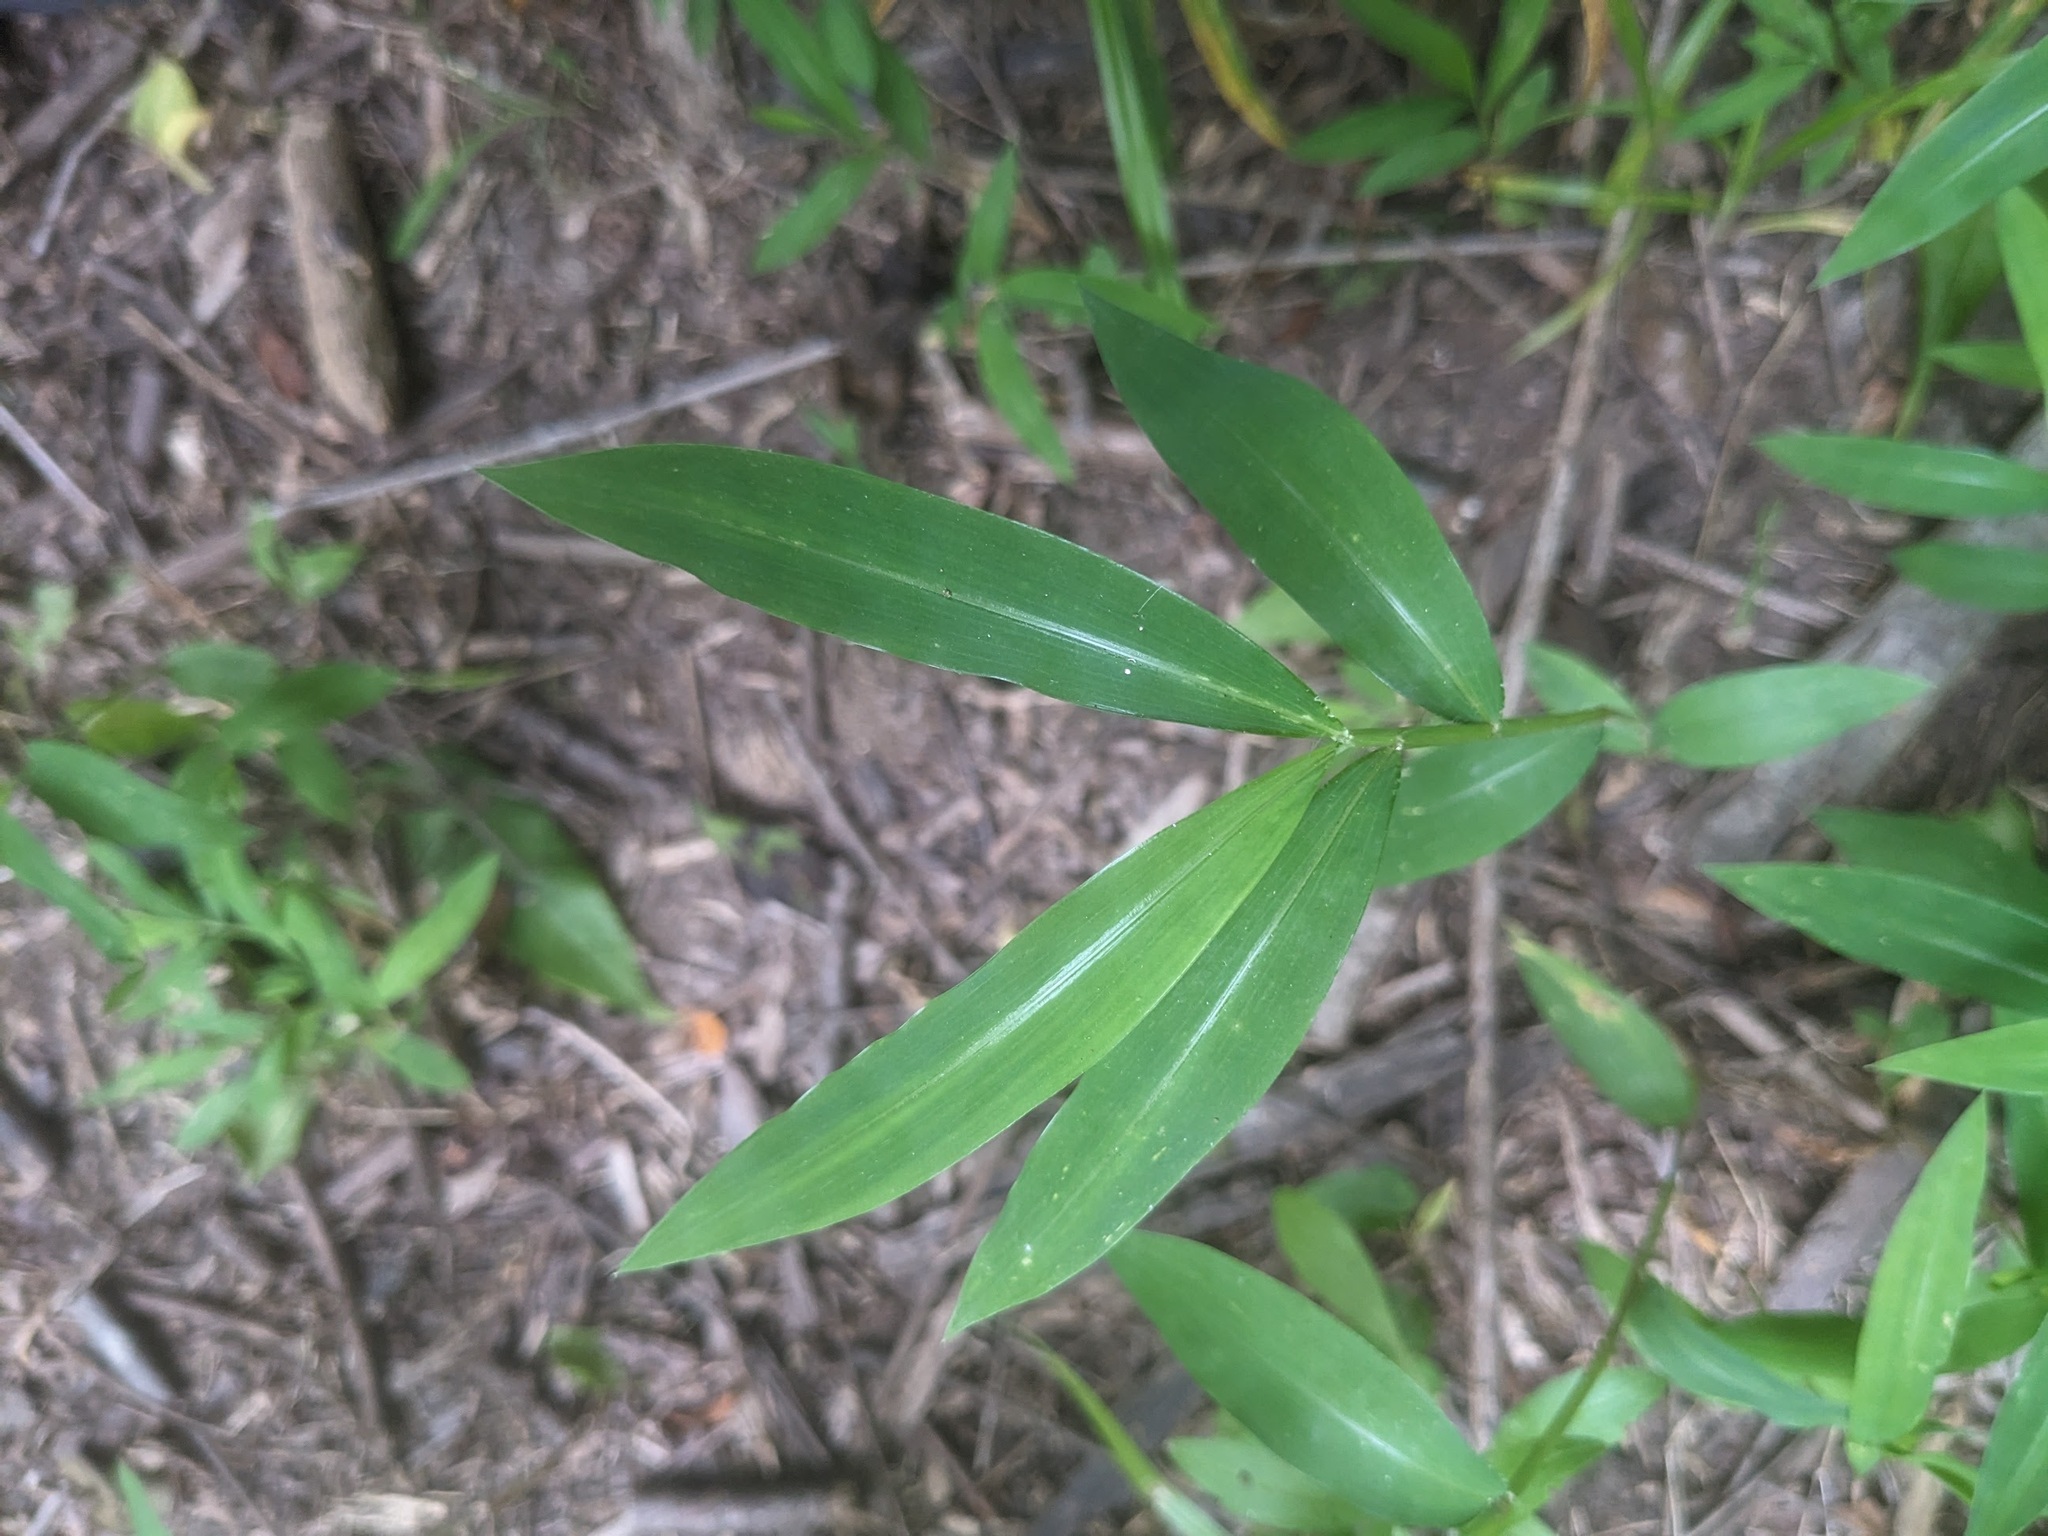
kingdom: Plantae
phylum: Tracheophyta
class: Liliopsida
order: Poales
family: Poaceae
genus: Microstegium
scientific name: Microstegium vimineum
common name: Japanese stiltgrass
